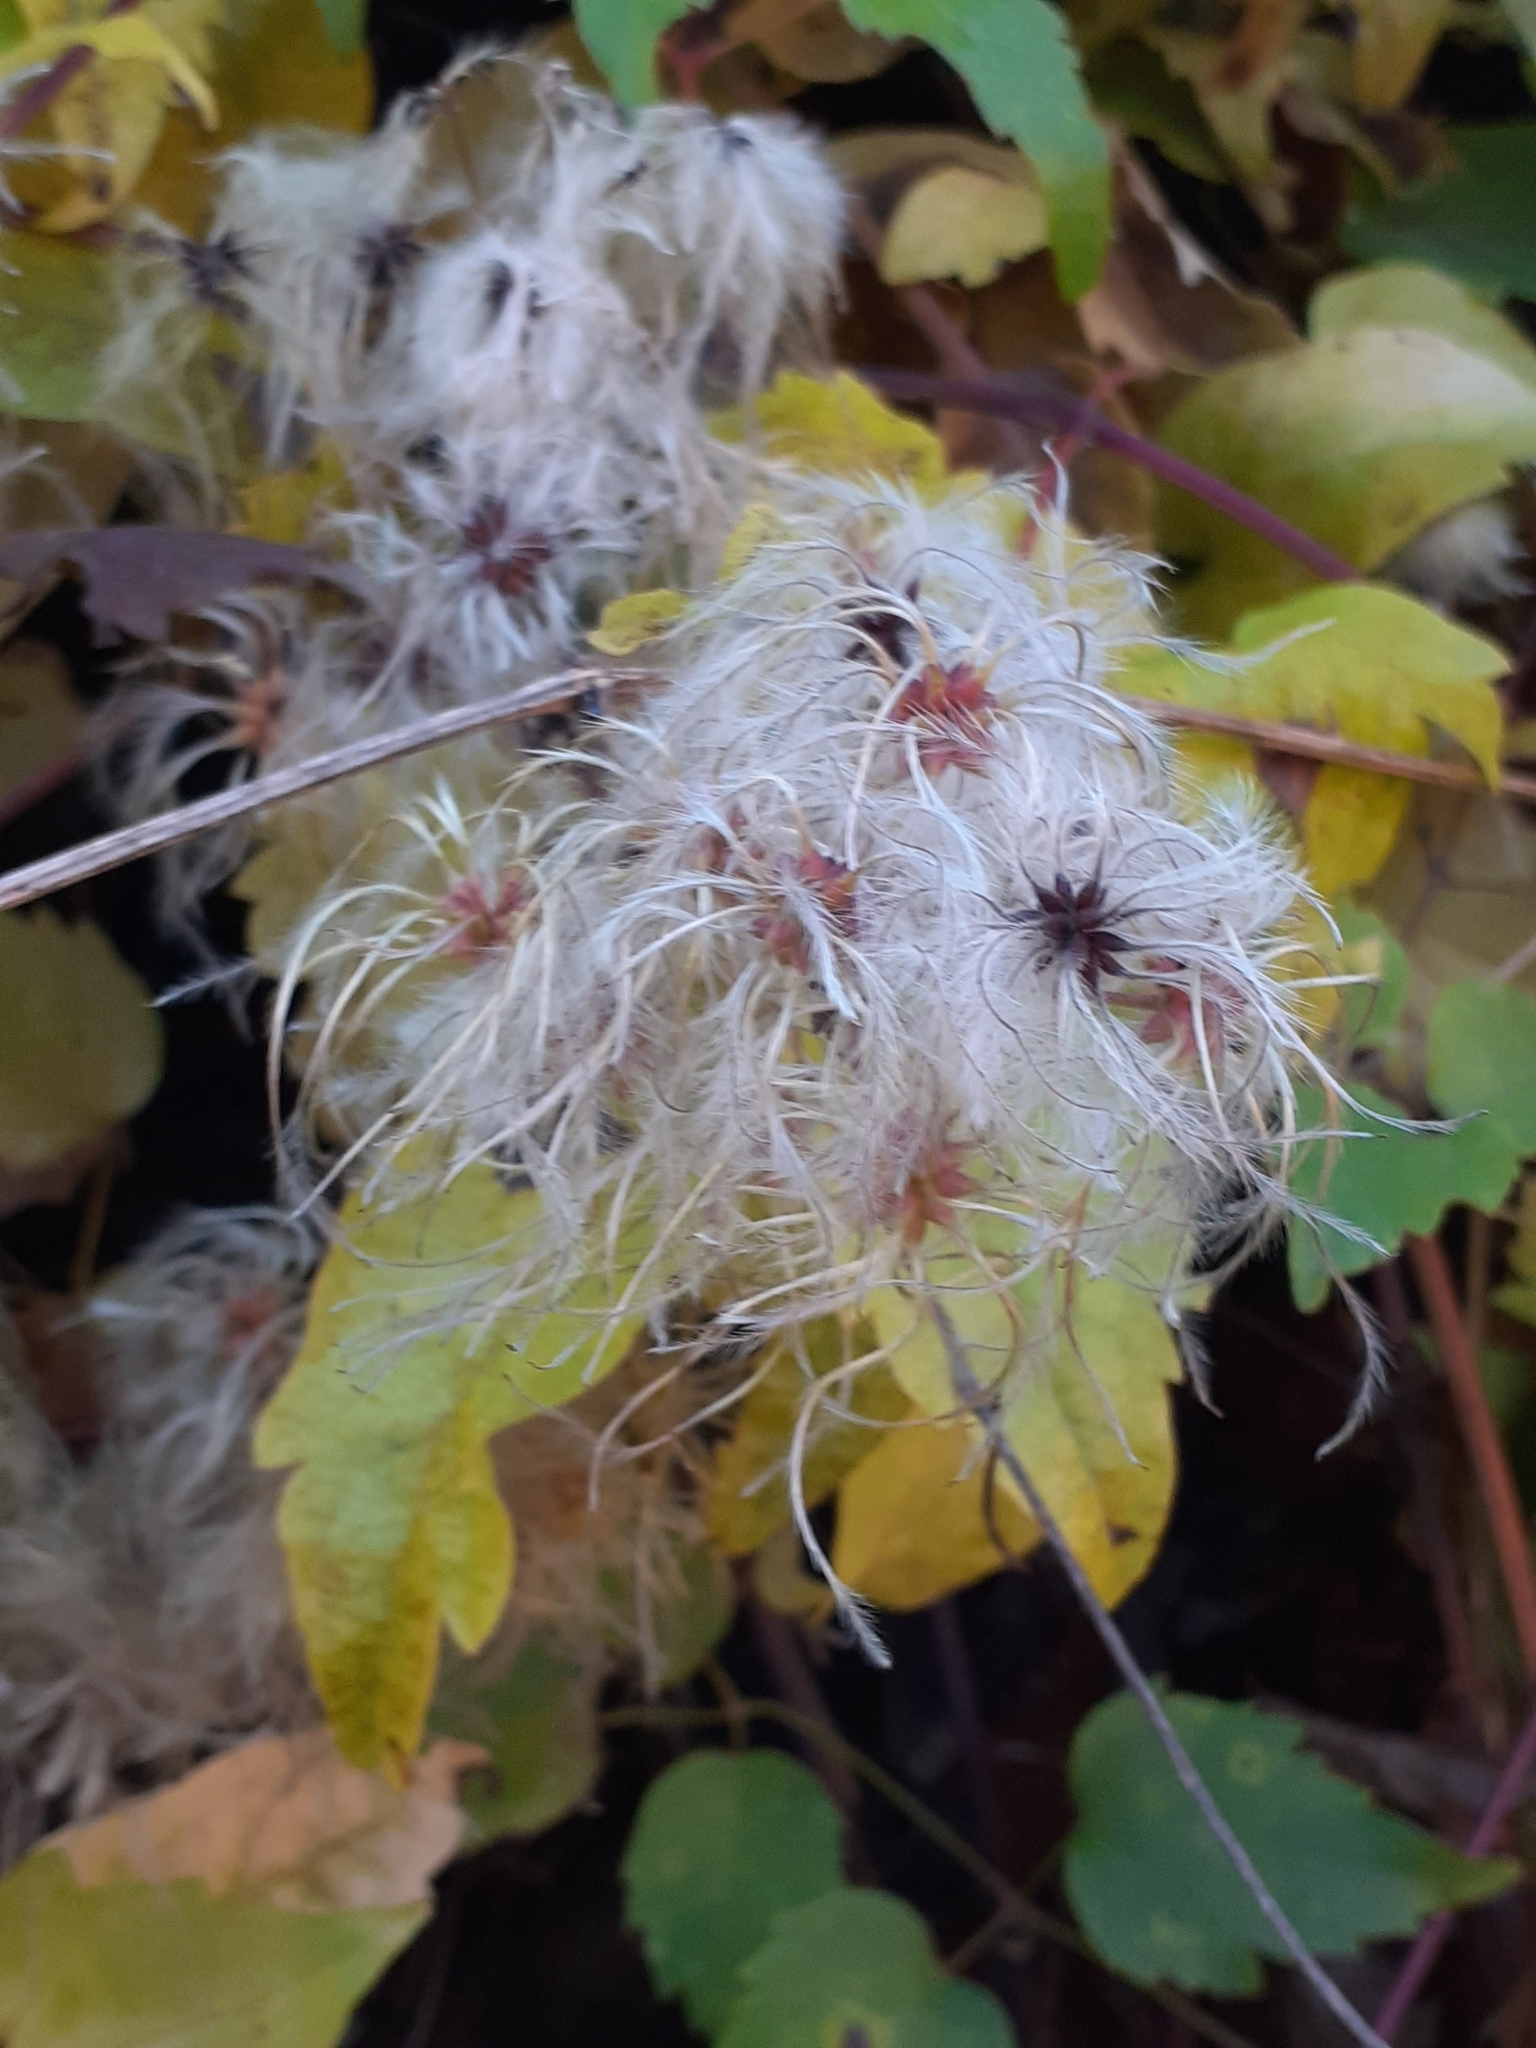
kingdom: Plantae
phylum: Tracheophyta
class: Magnoliopsida
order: Ranunculales
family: Ranunculaceae
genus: Clematis
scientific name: Clematis vitalba
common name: Evergreen clematis
